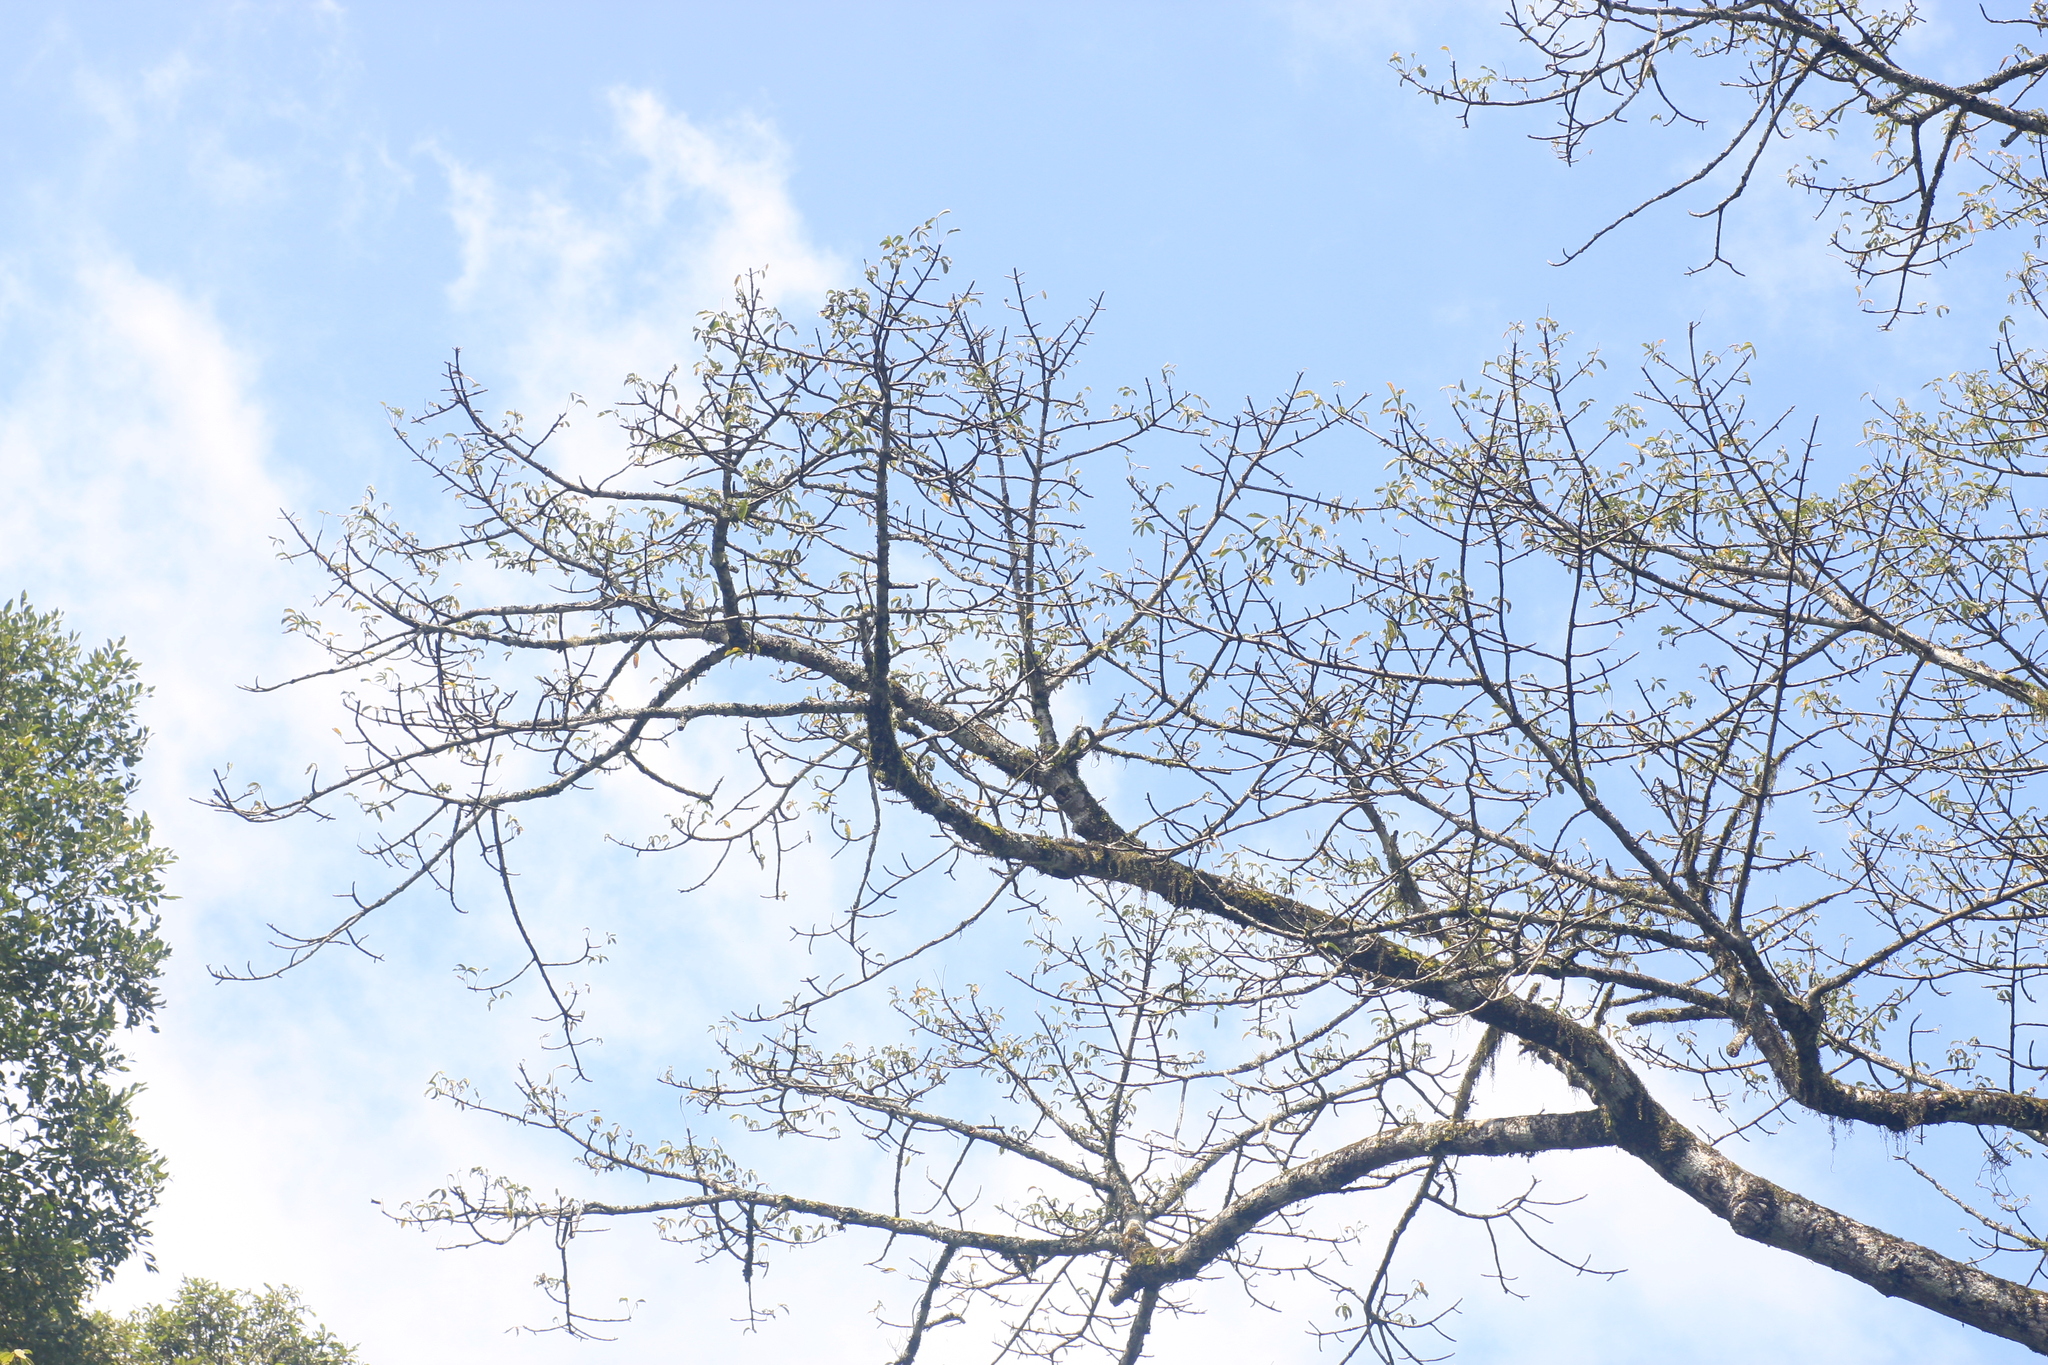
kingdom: Plantae
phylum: Tracheophyta
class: Magnoliopsida
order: Malvales
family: Malvaceae
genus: Bombax
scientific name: Bombax ceiba
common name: Northern-cottonwood
